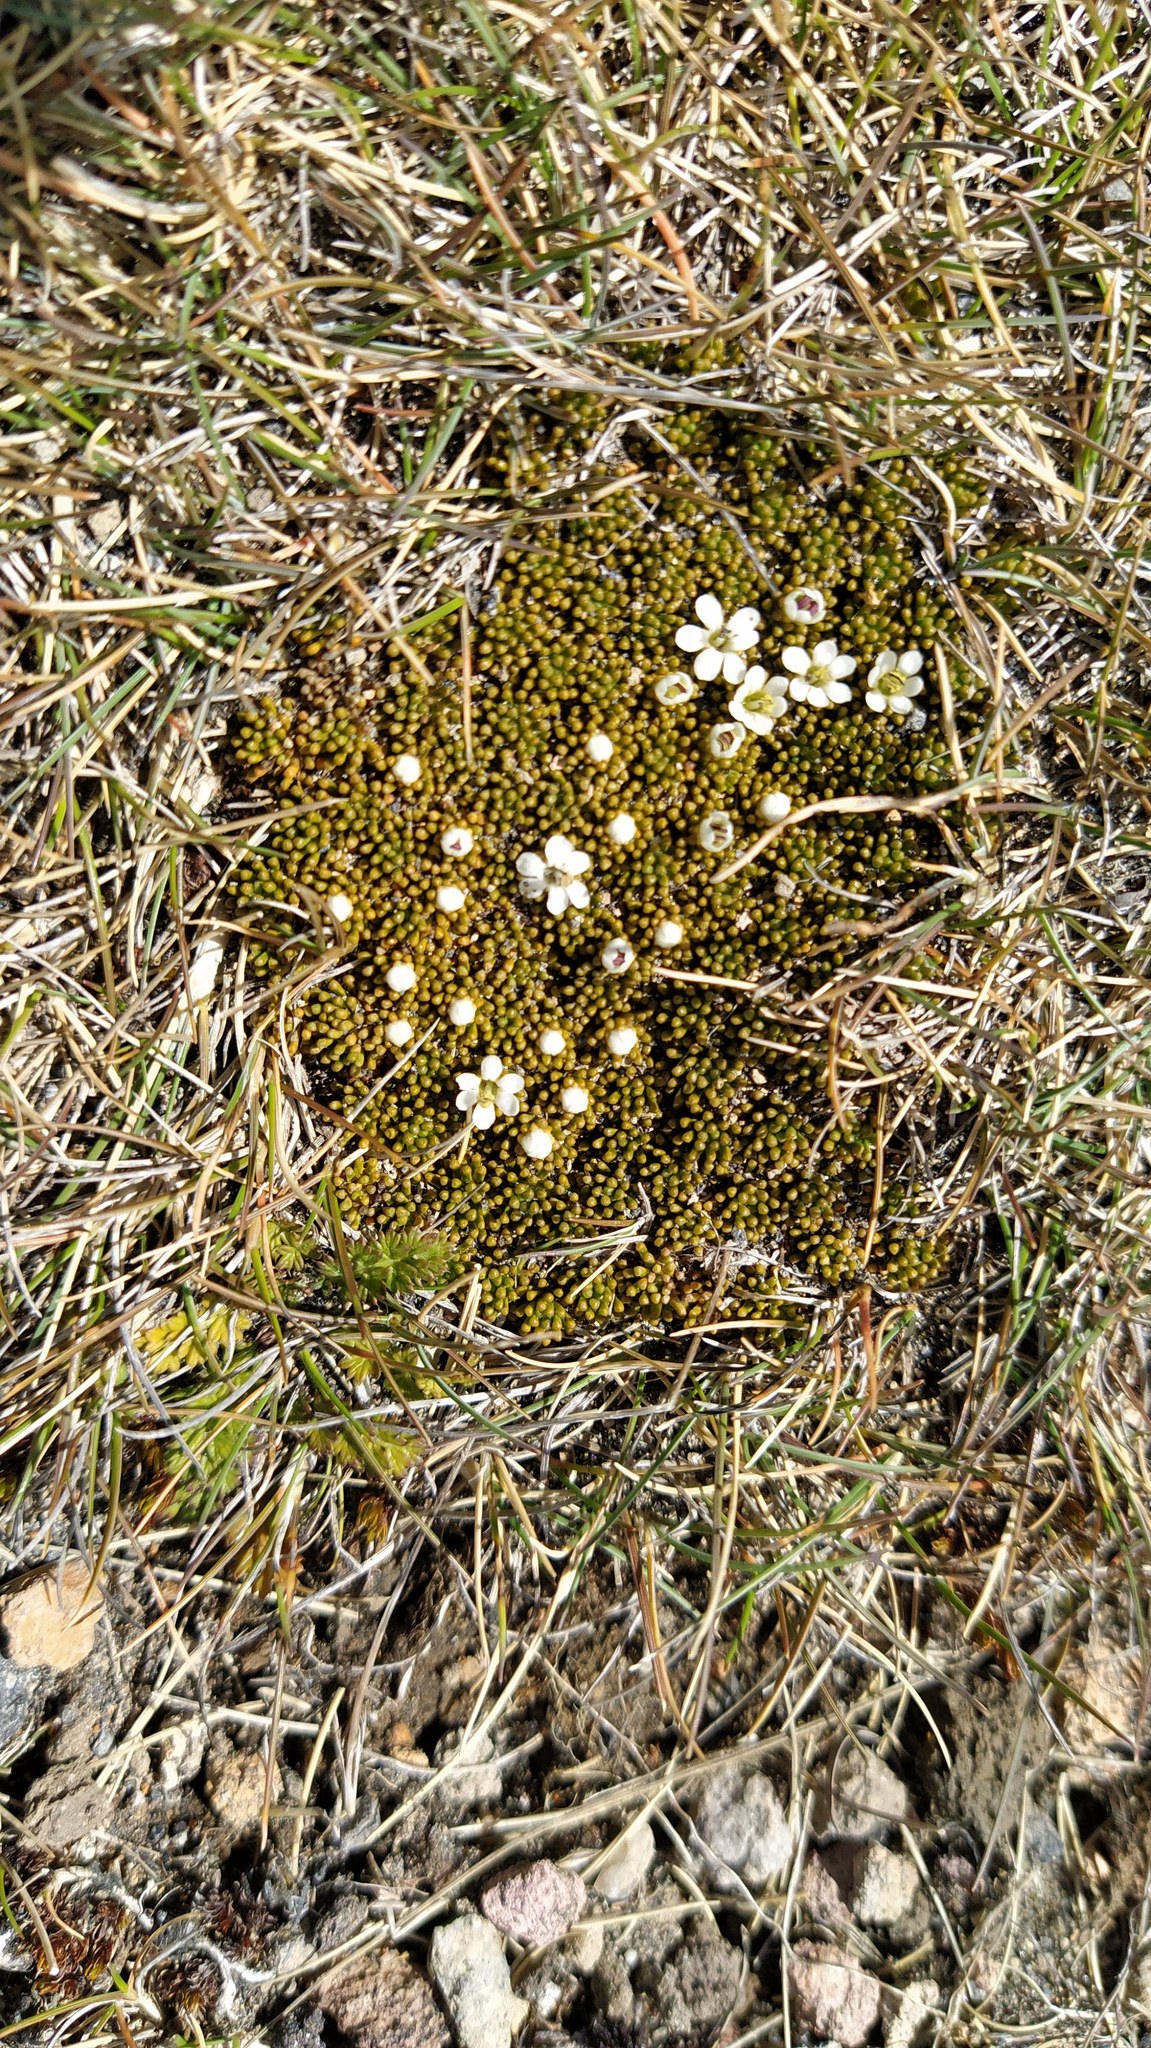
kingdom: Plantae
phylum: Tracheophyta
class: Magnoliopsida
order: Asterales
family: Stylidiaceae
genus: Phyllachne
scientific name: Phyllachne colensoi
